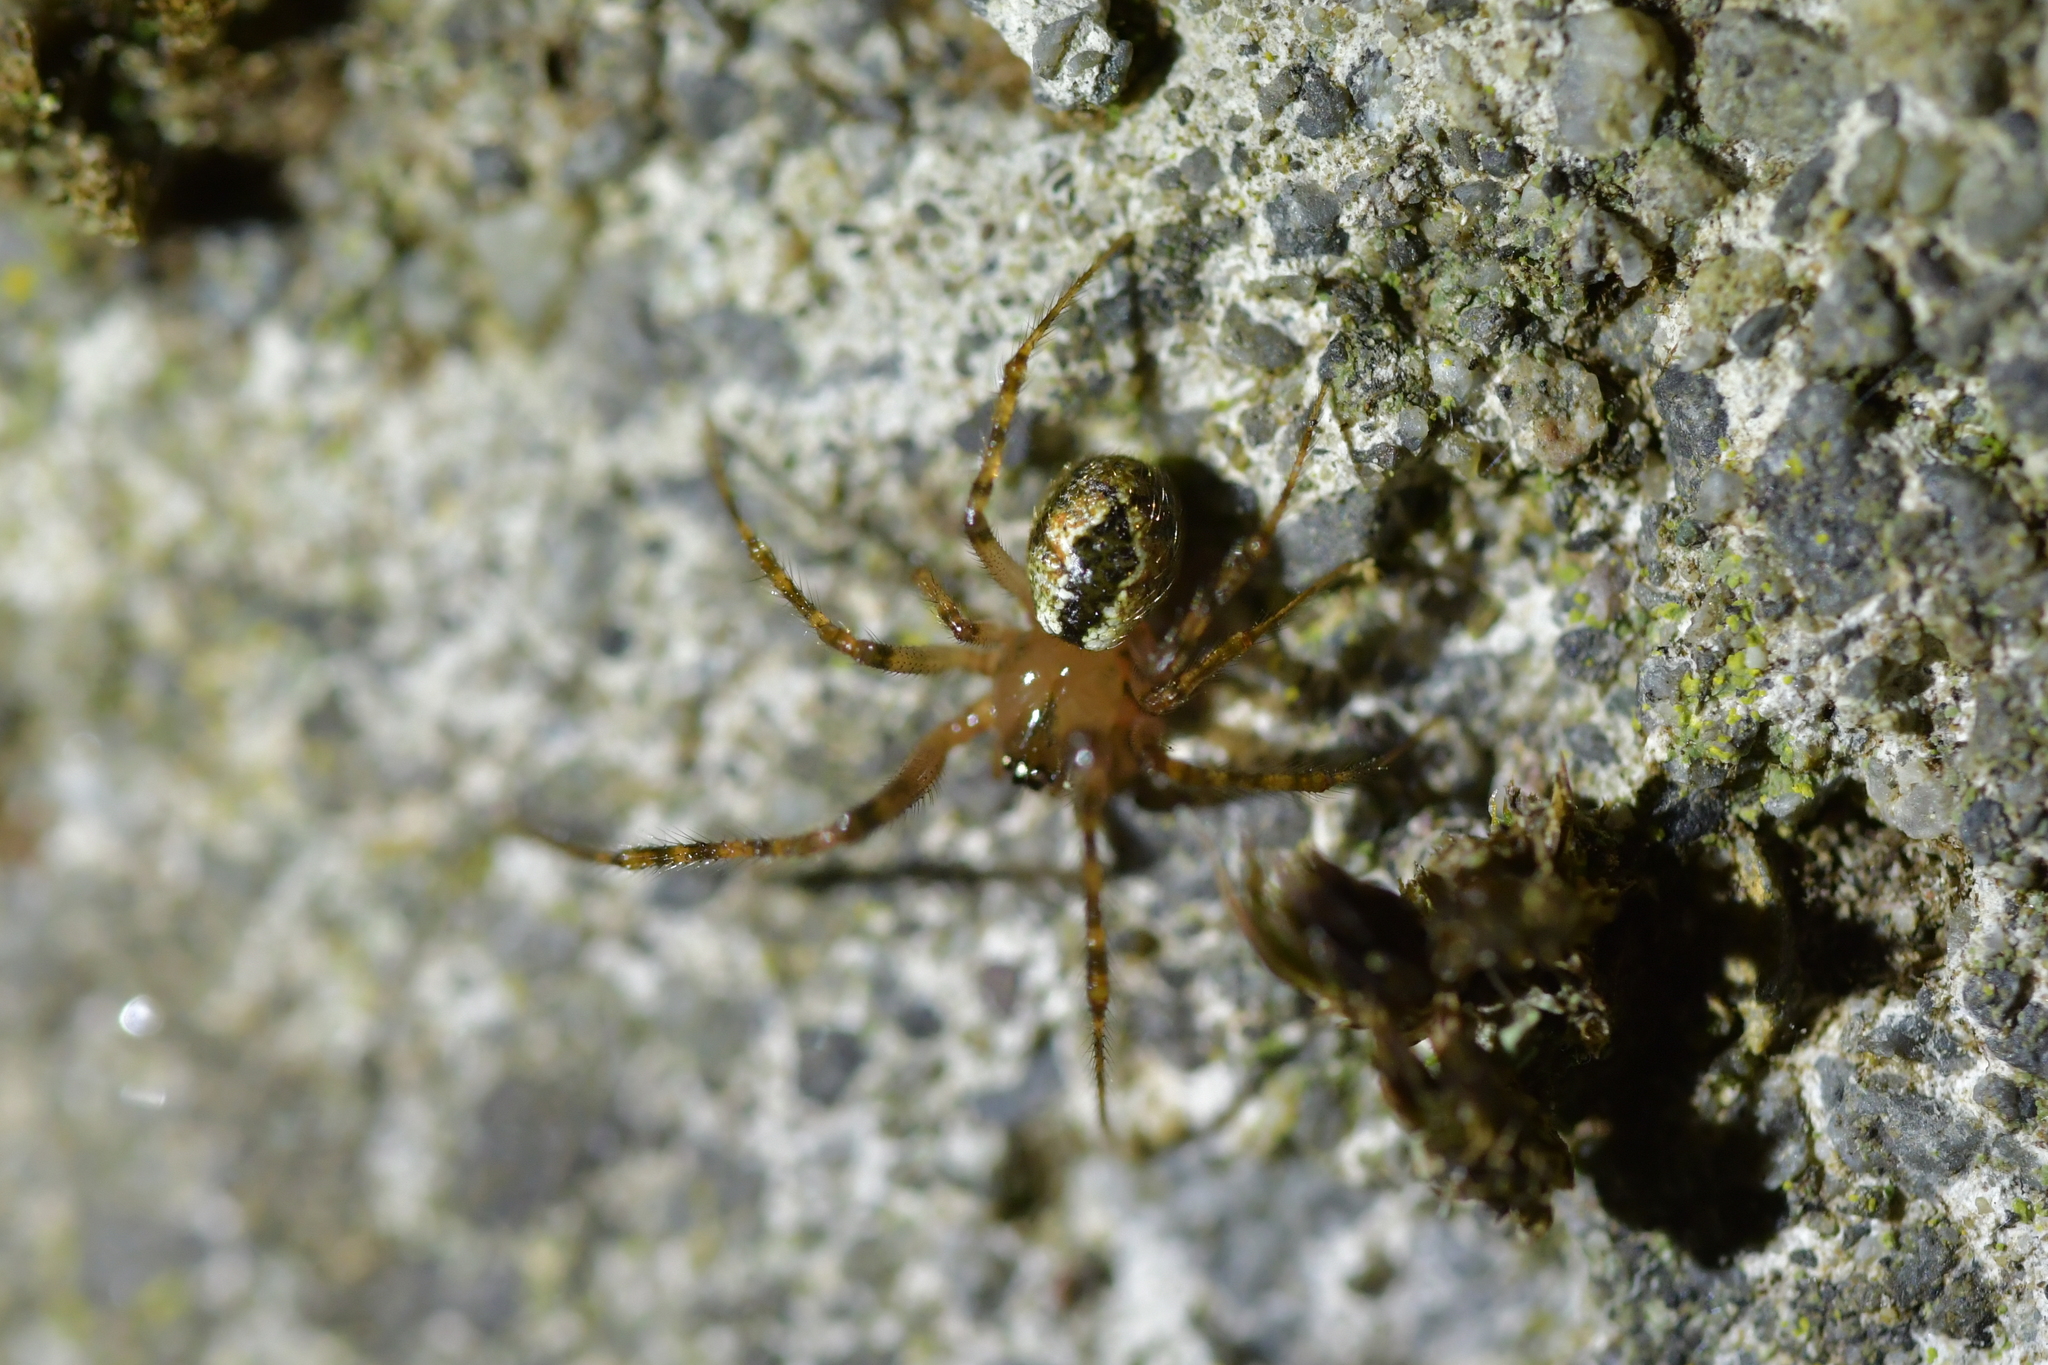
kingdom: Animalia
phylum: Arthropoda
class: Arachnida
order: Araneae
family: Theridiidae
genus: Cryptachaea
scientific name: Cryptachaea veruculata
